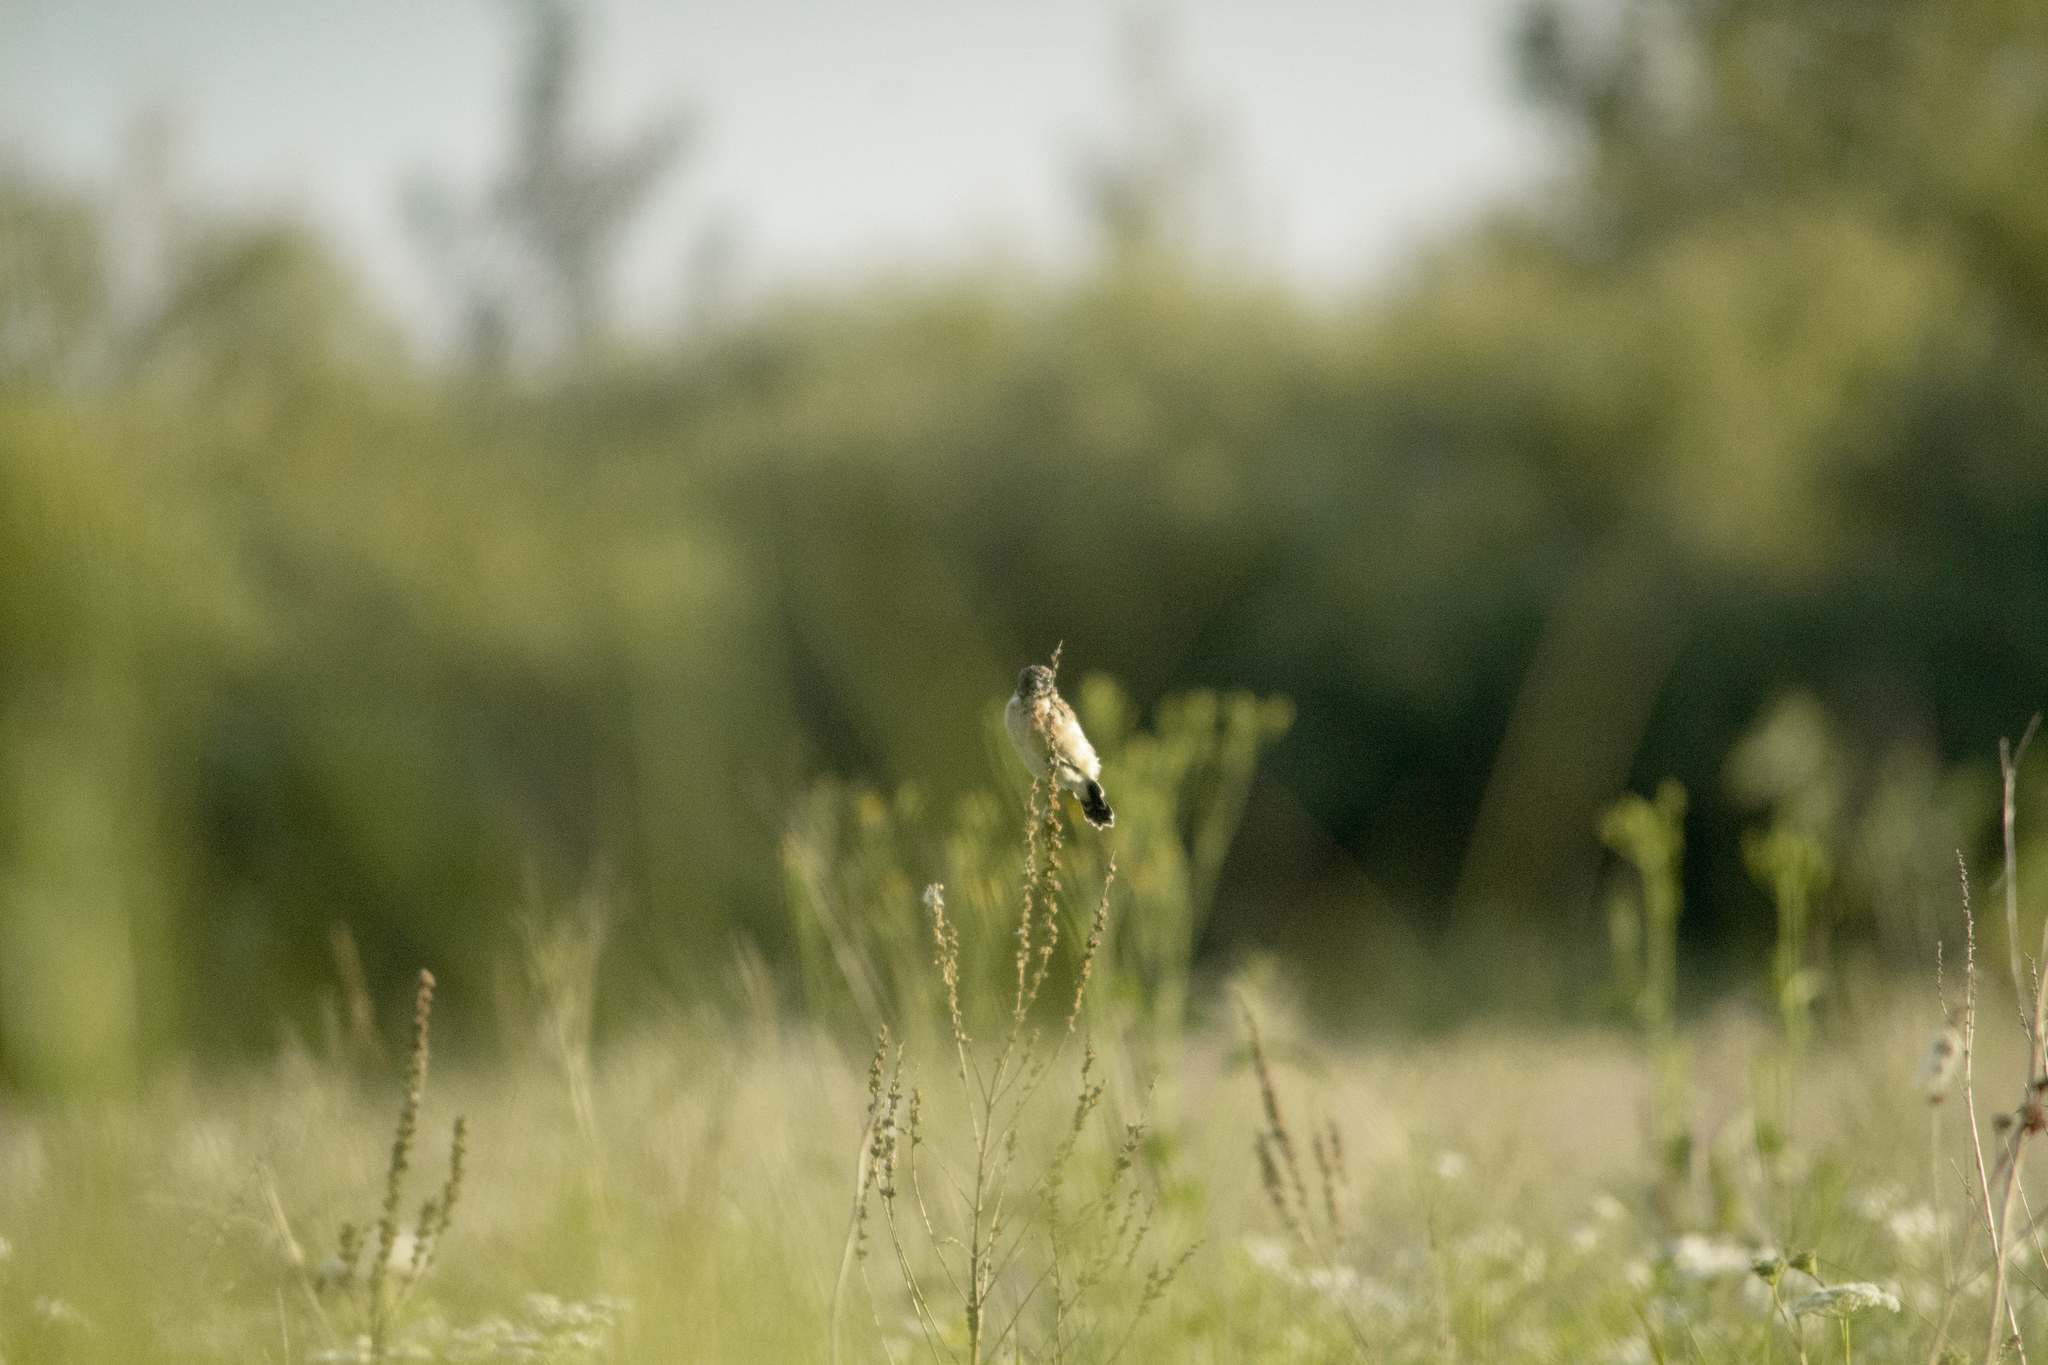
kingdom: Animalia
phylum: Chordata
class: Aves
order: Passeriformes
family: Muscicapidae
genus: Saxicola
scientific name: Saxicola maurus
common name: Siberian stonechat
